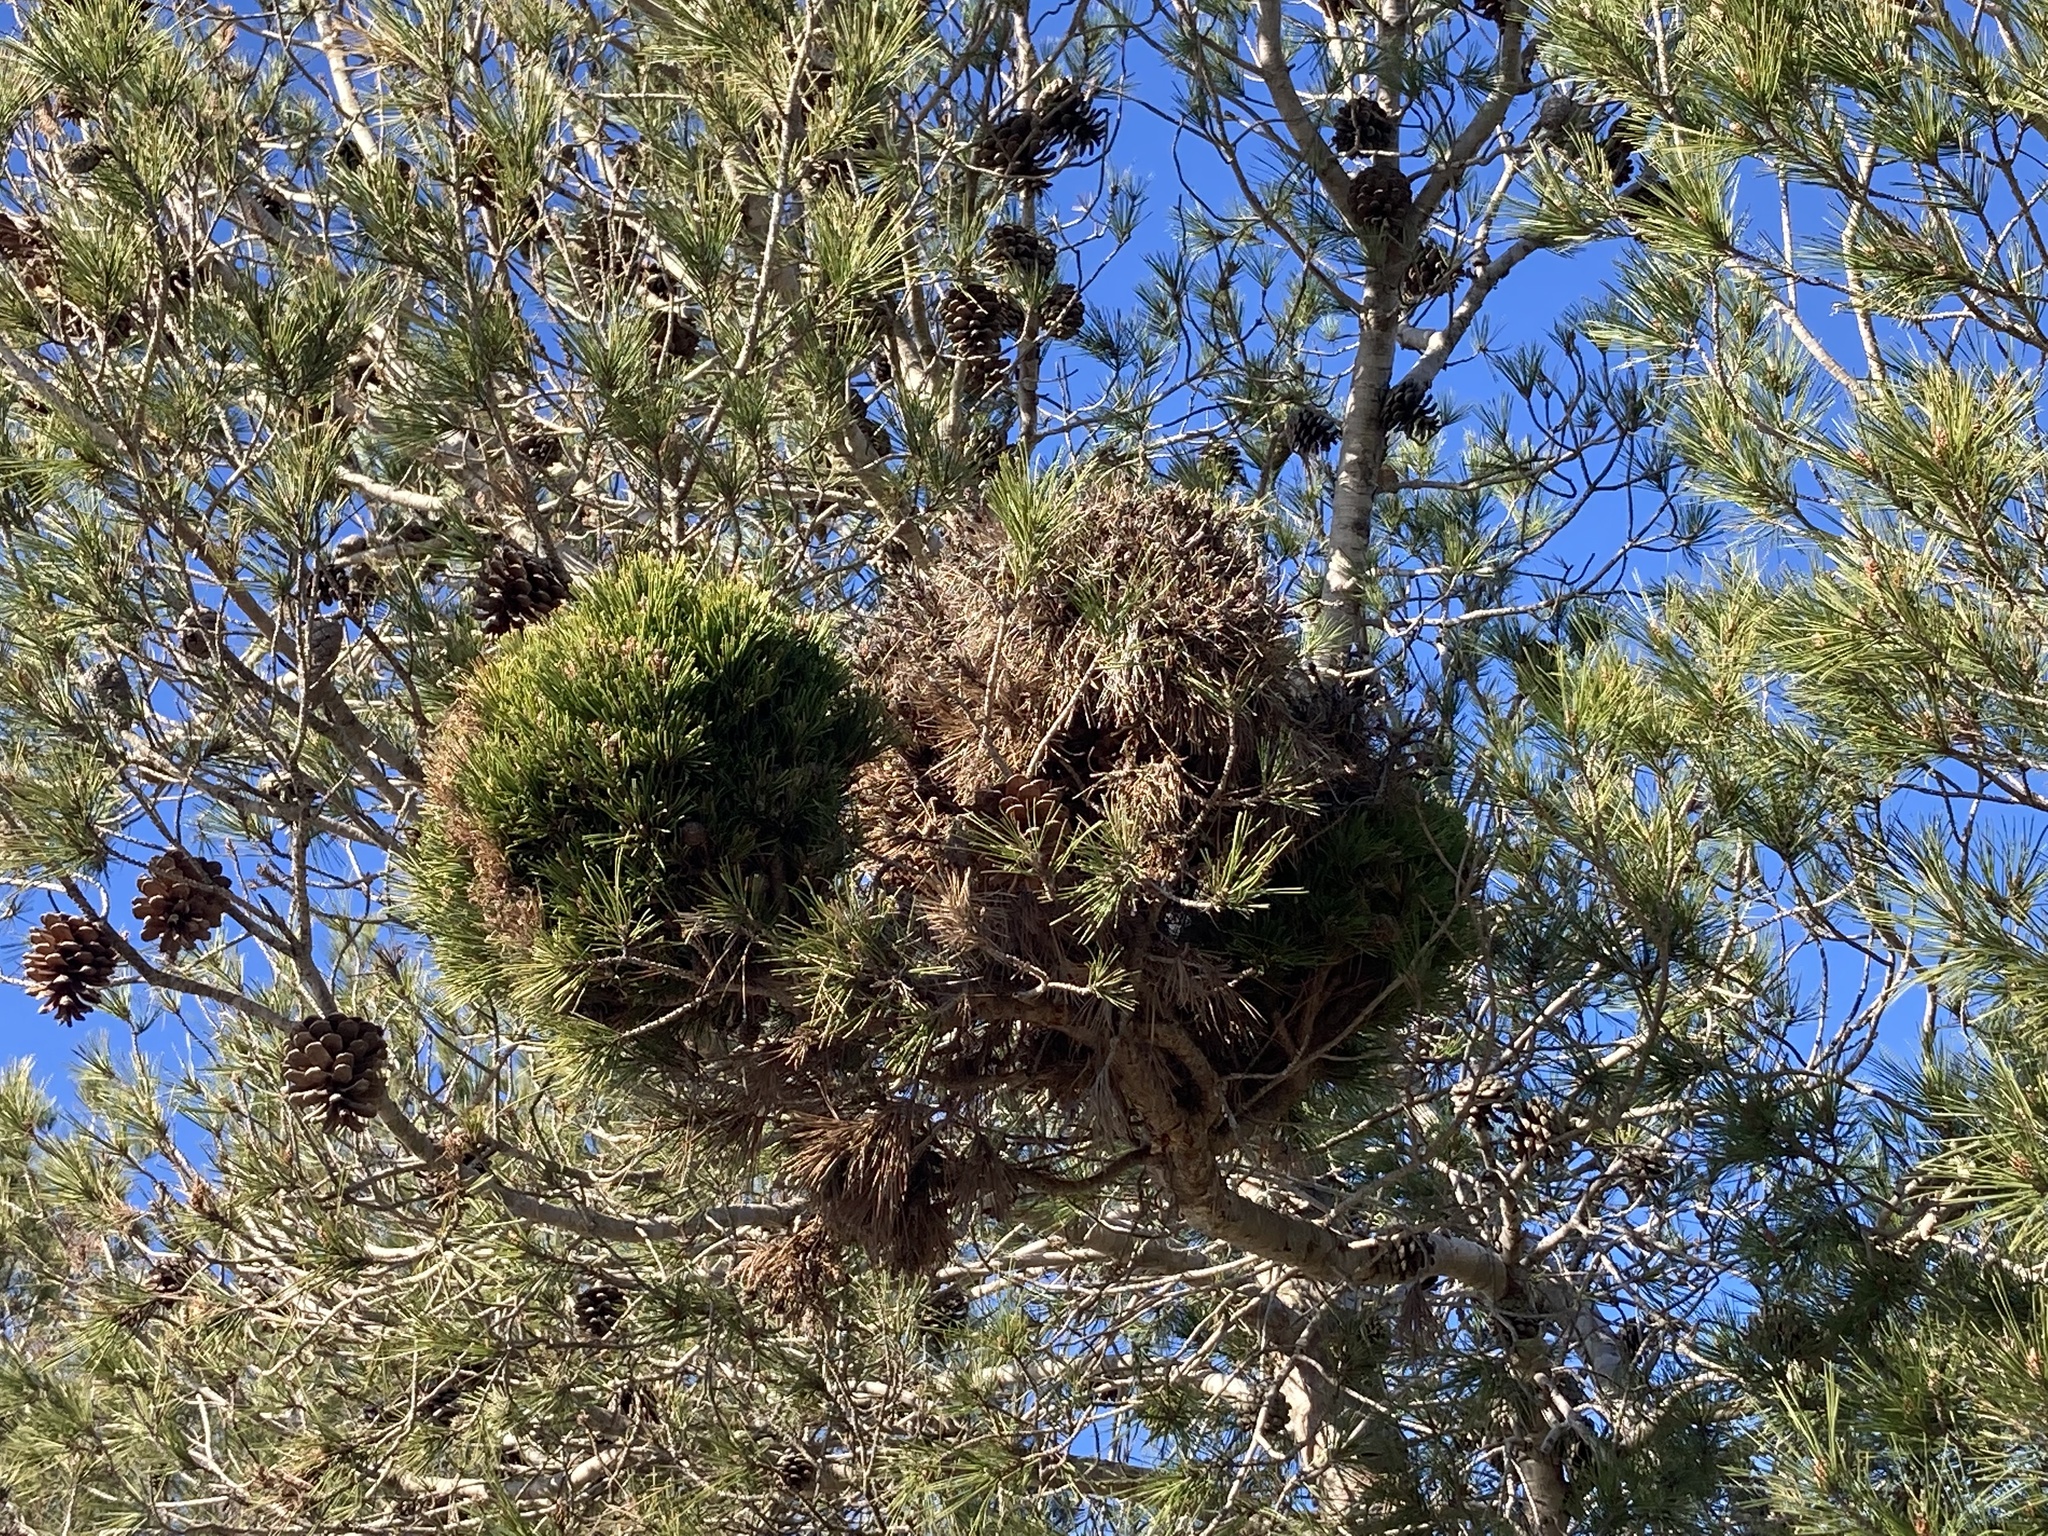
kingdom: Bacteria
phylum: Firmicutes
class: Bacilli
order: Acholeplasmatales
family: Acholeplasmataceae
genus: Phytoplasma
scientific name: Phytoplasma pini
